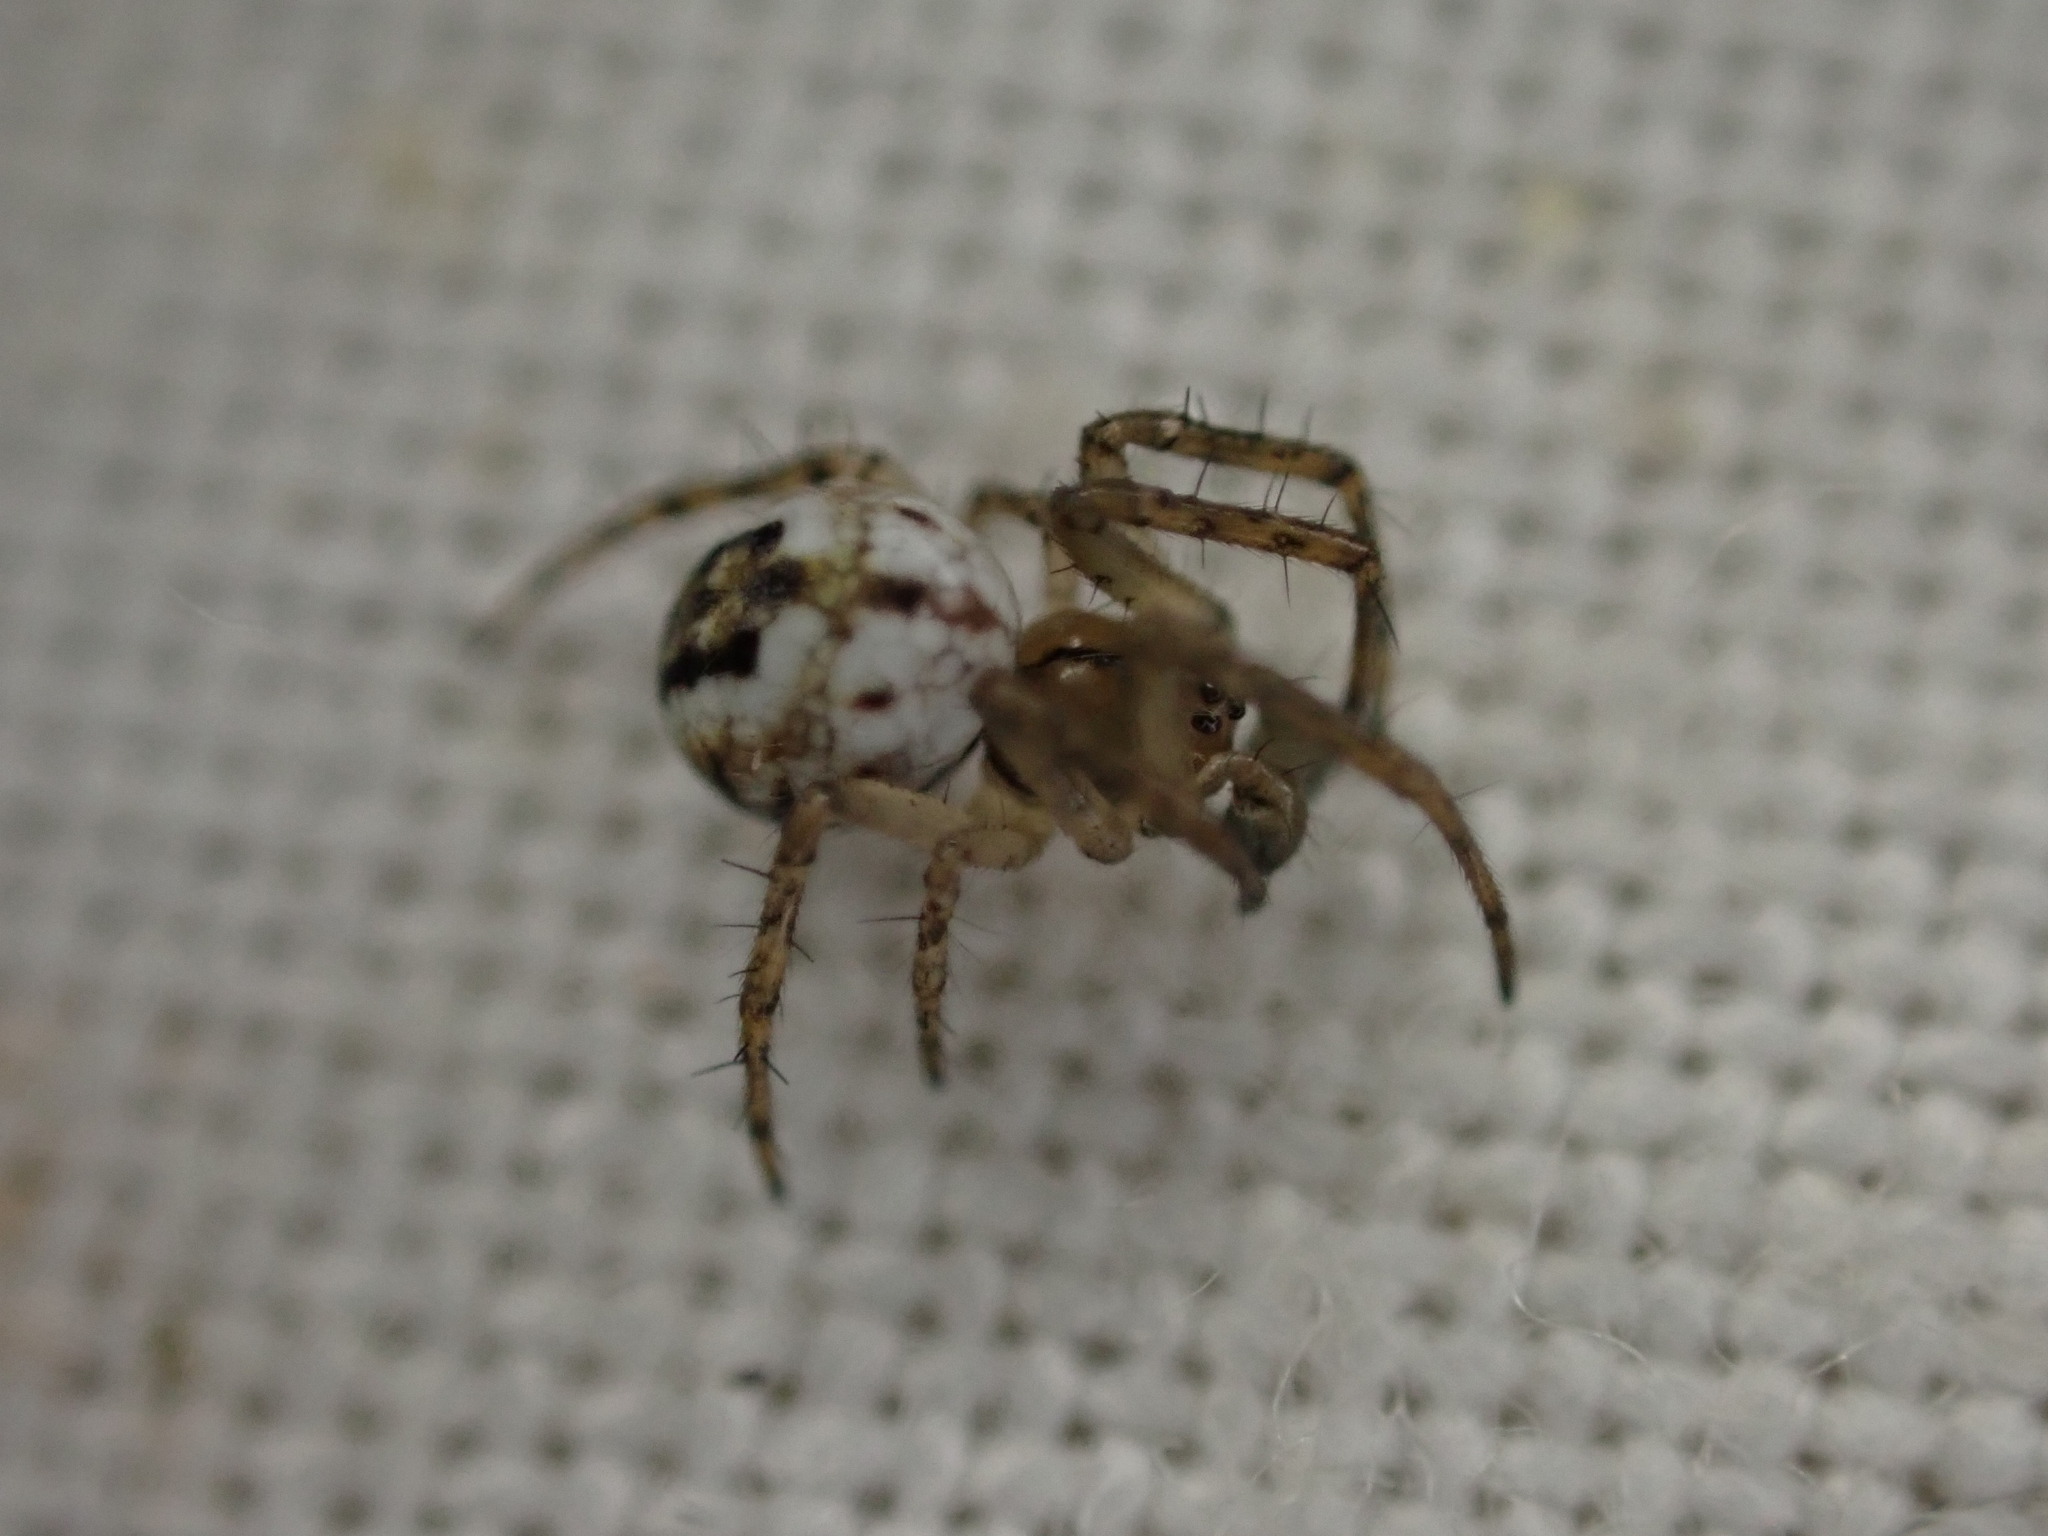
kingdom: Animalia
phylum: Arthropoda
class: Arachnida
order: Araneae
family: Araneidae
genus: Mangora
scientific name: Mangora acalypha
